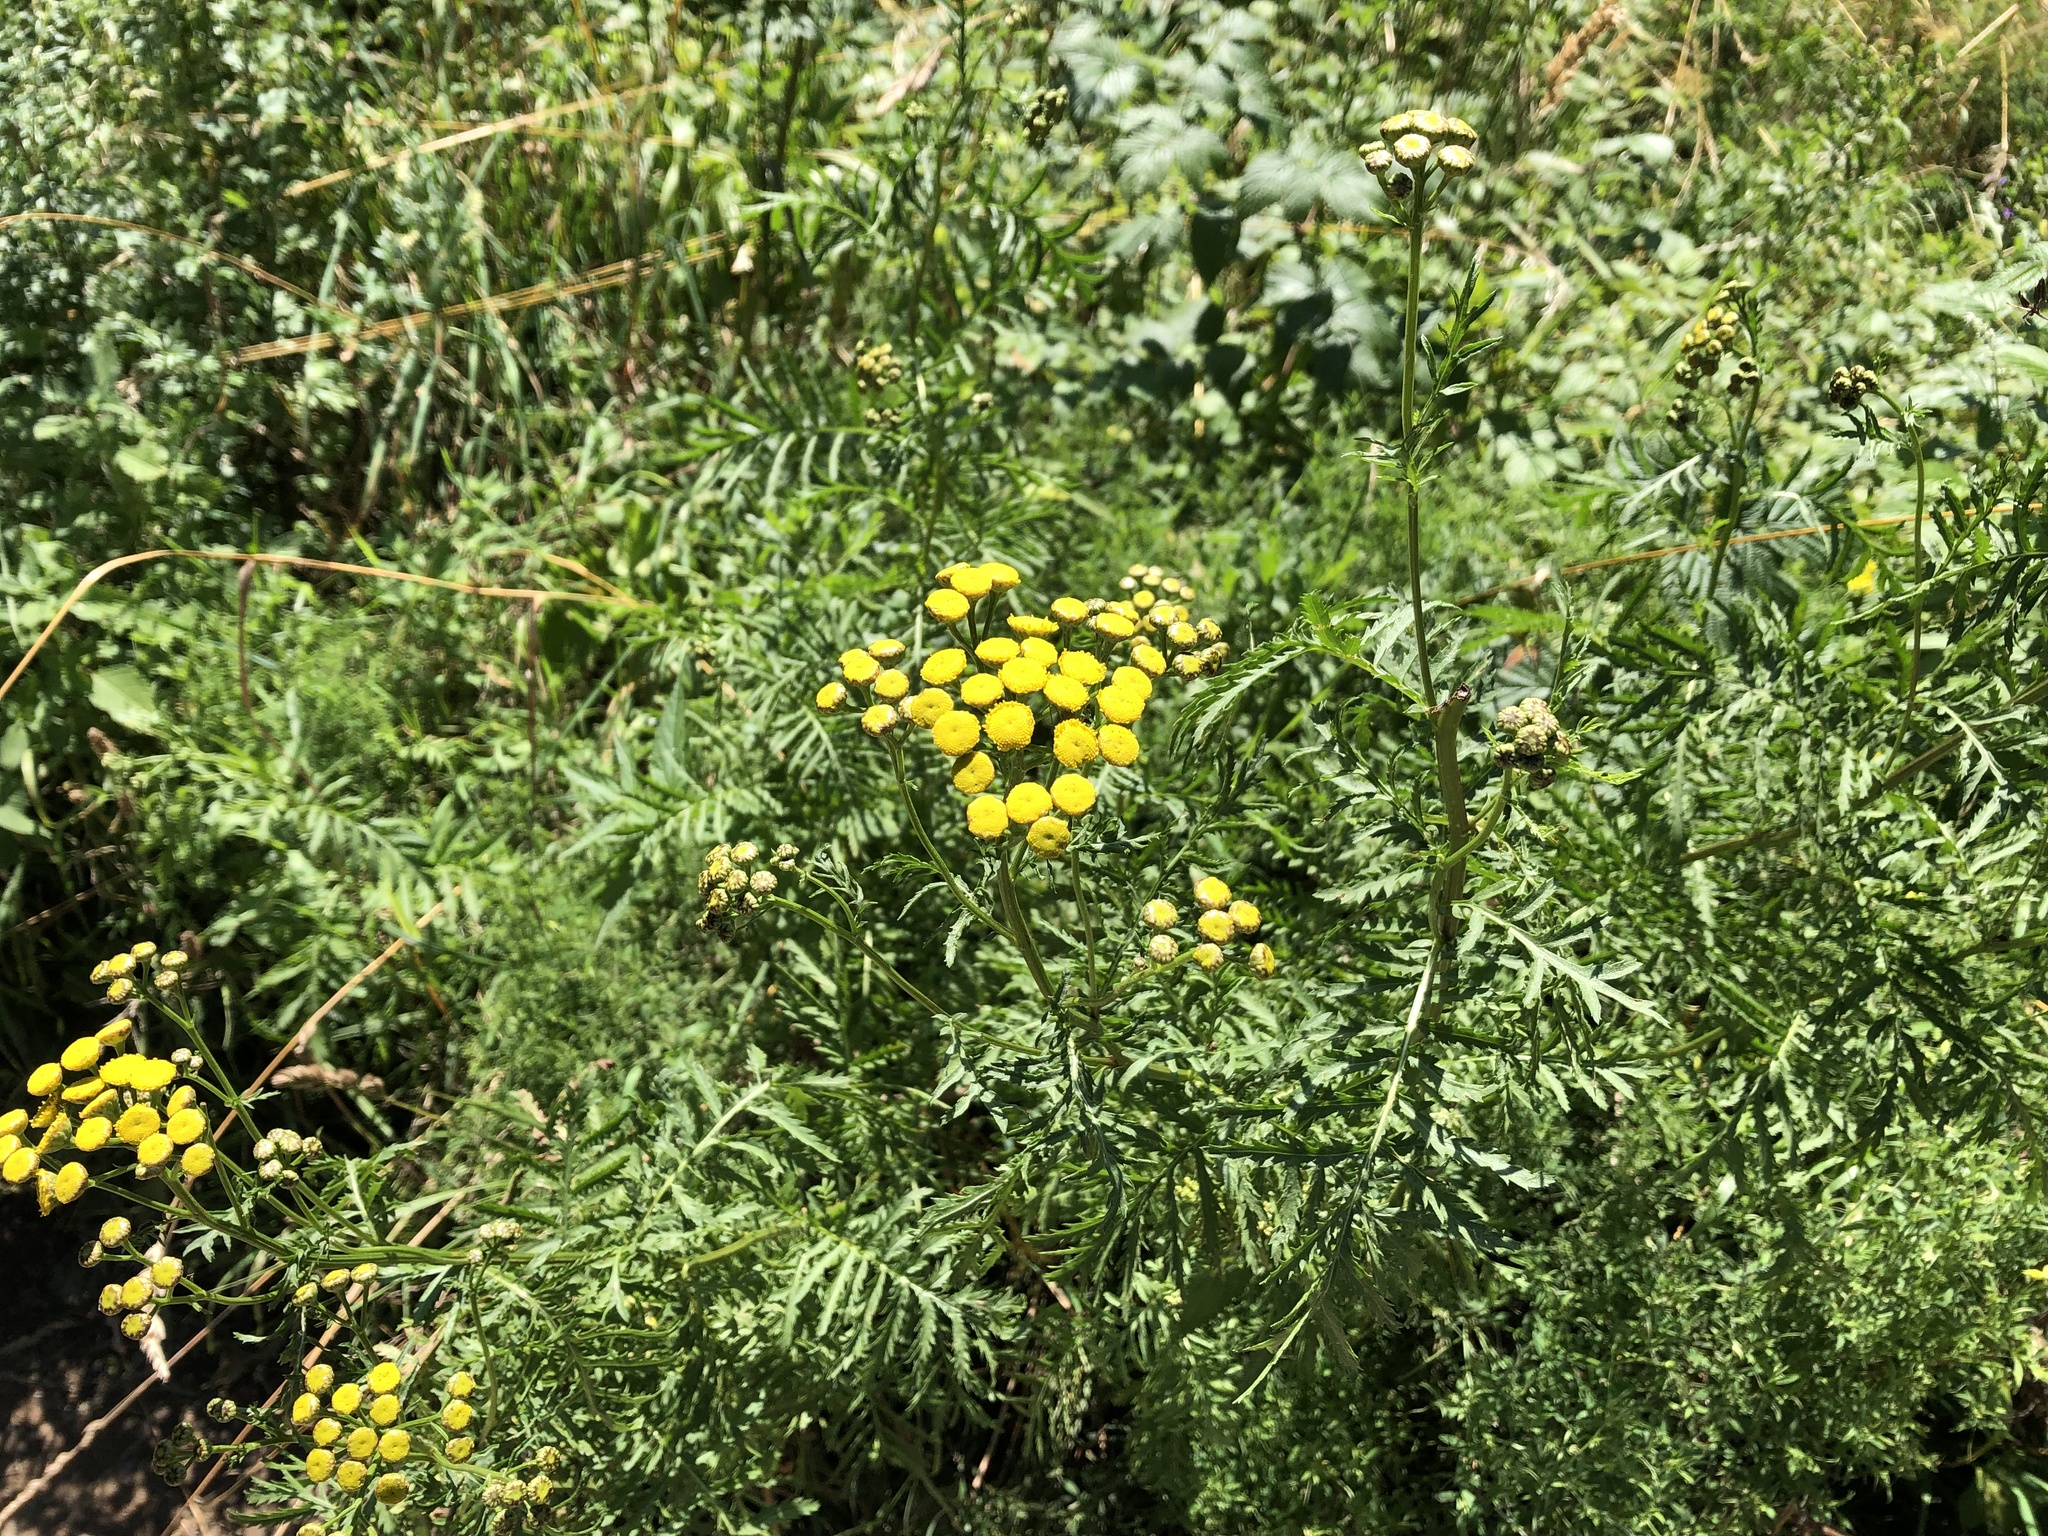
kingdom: Plantae
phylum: Tracheophyta
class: Magnoliopsida
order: Asterales
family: Asteraceae
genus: Tanacetum
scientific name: Tanacetum vulgare
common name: Common tansy
